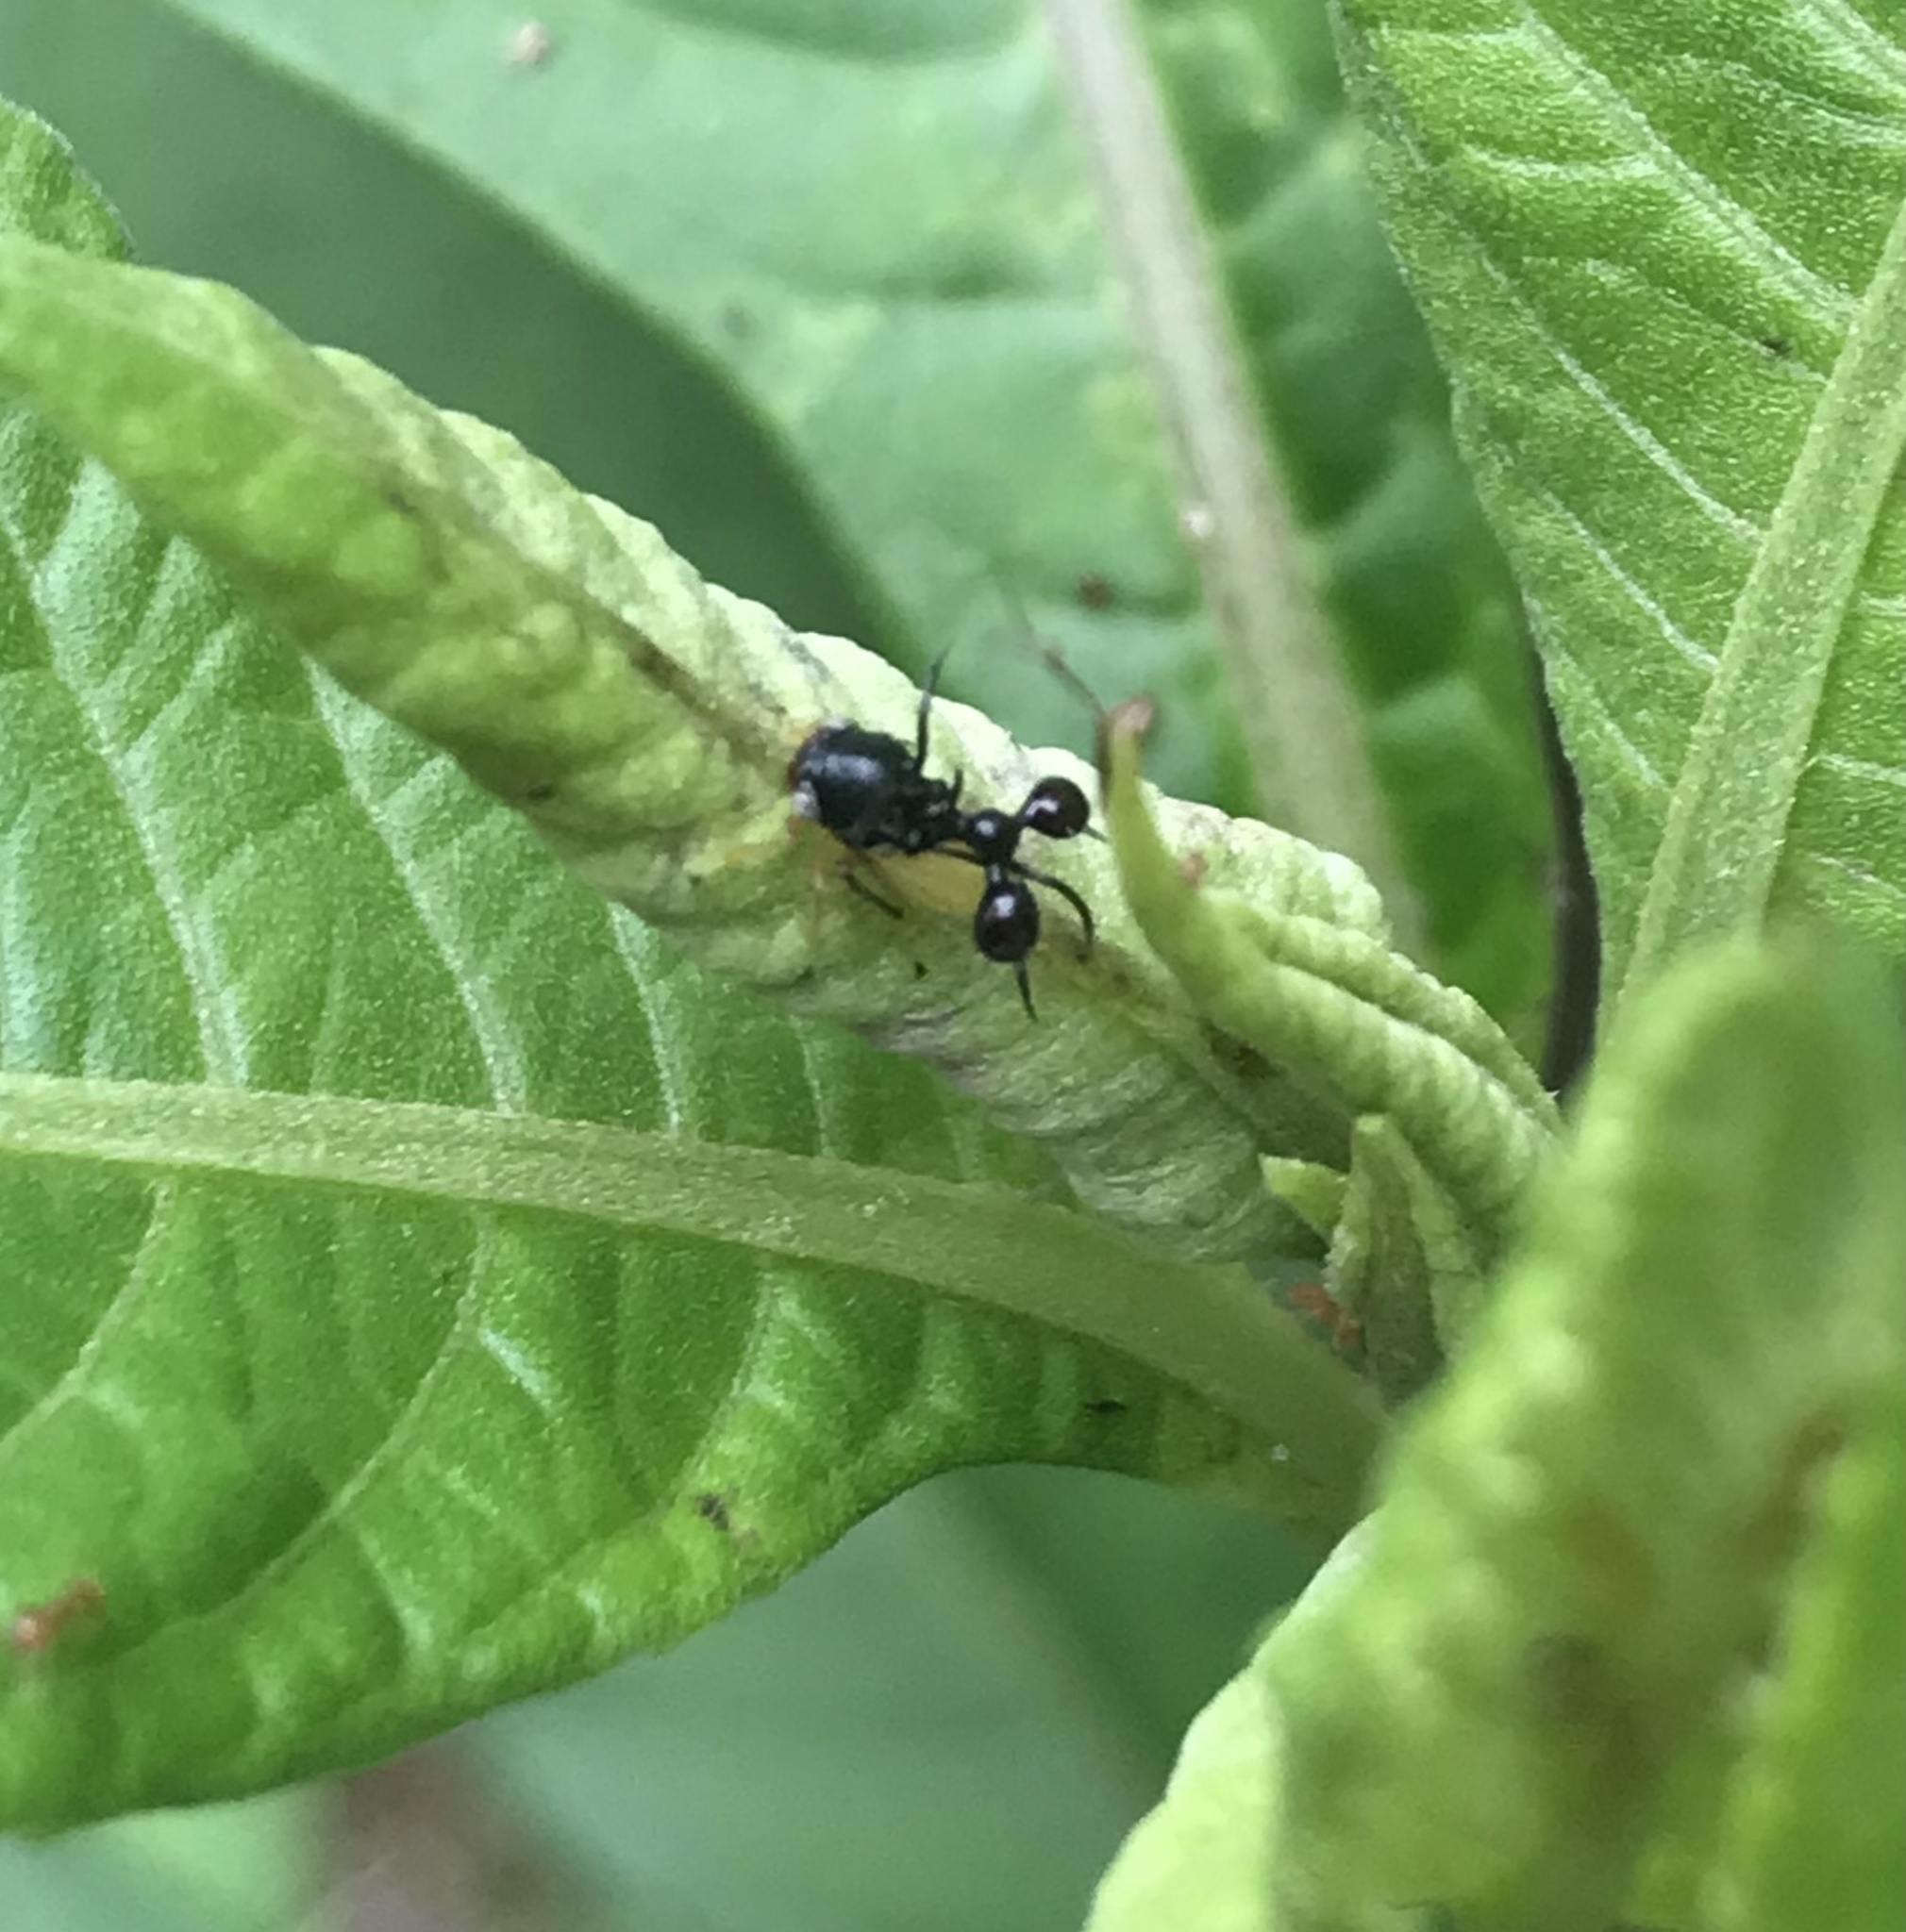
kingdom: Animalia
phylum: Arthropoda
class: Insecta
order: Hemiptera
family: Membracidae
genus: Cyphonia
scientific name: Cyphonia clavata
